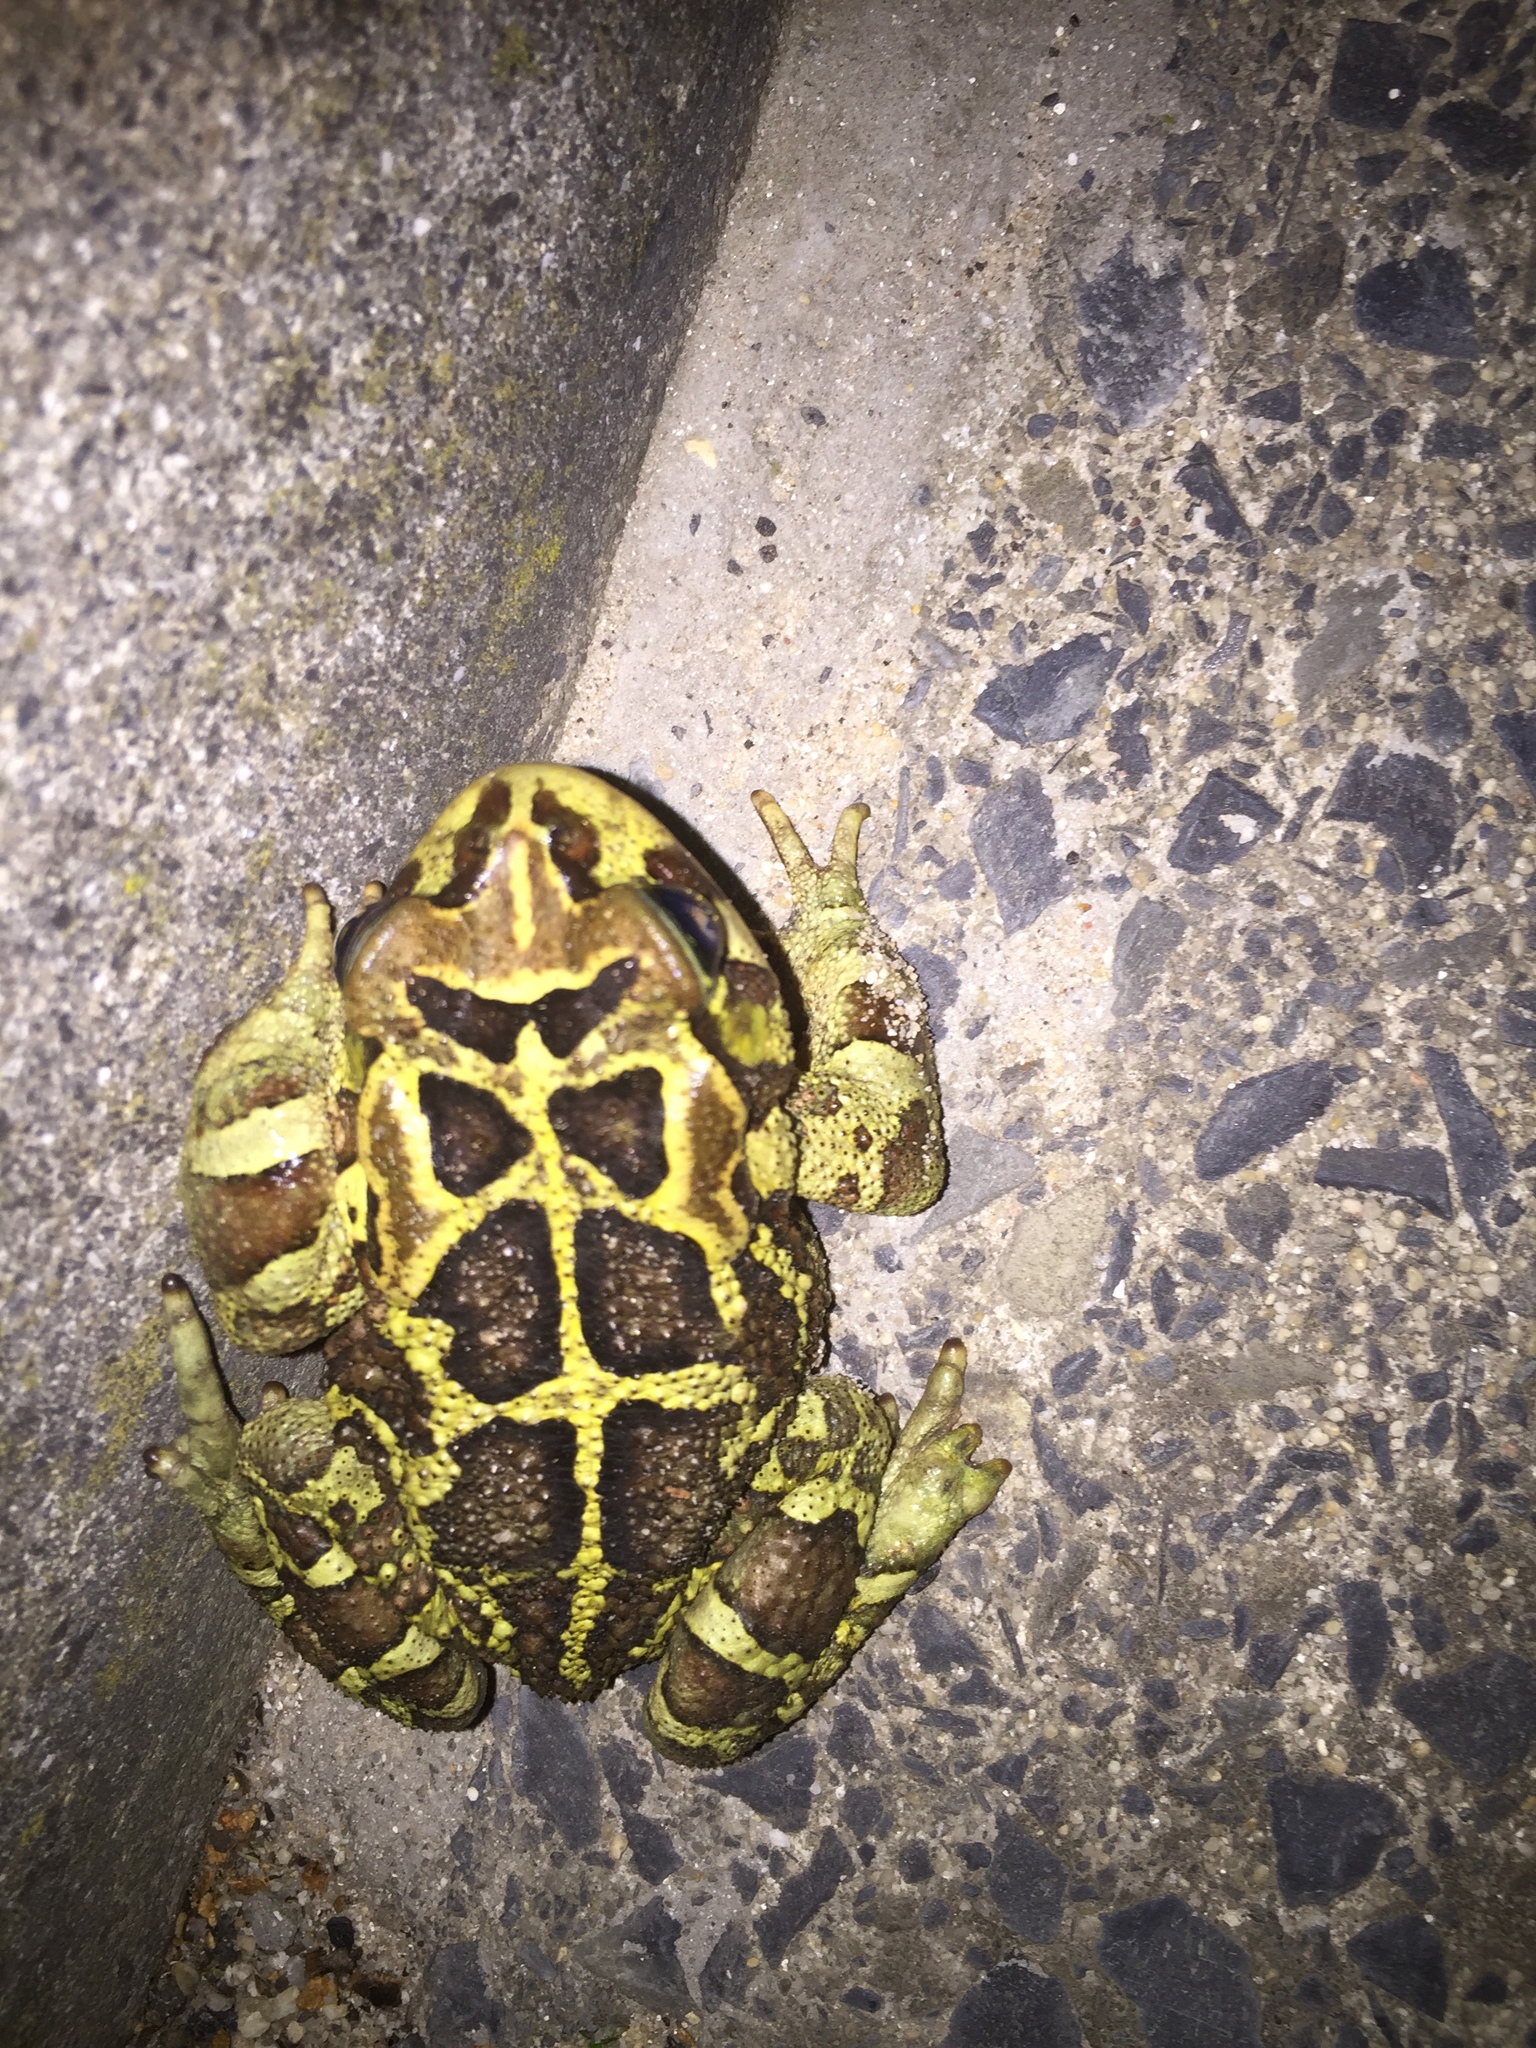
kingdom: Animalia
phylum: Chordata
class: Amphibia
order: Anura
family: Bufonidae
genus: Sclerophrys
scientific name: Sclerophrys pantherina
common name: Panther toad
